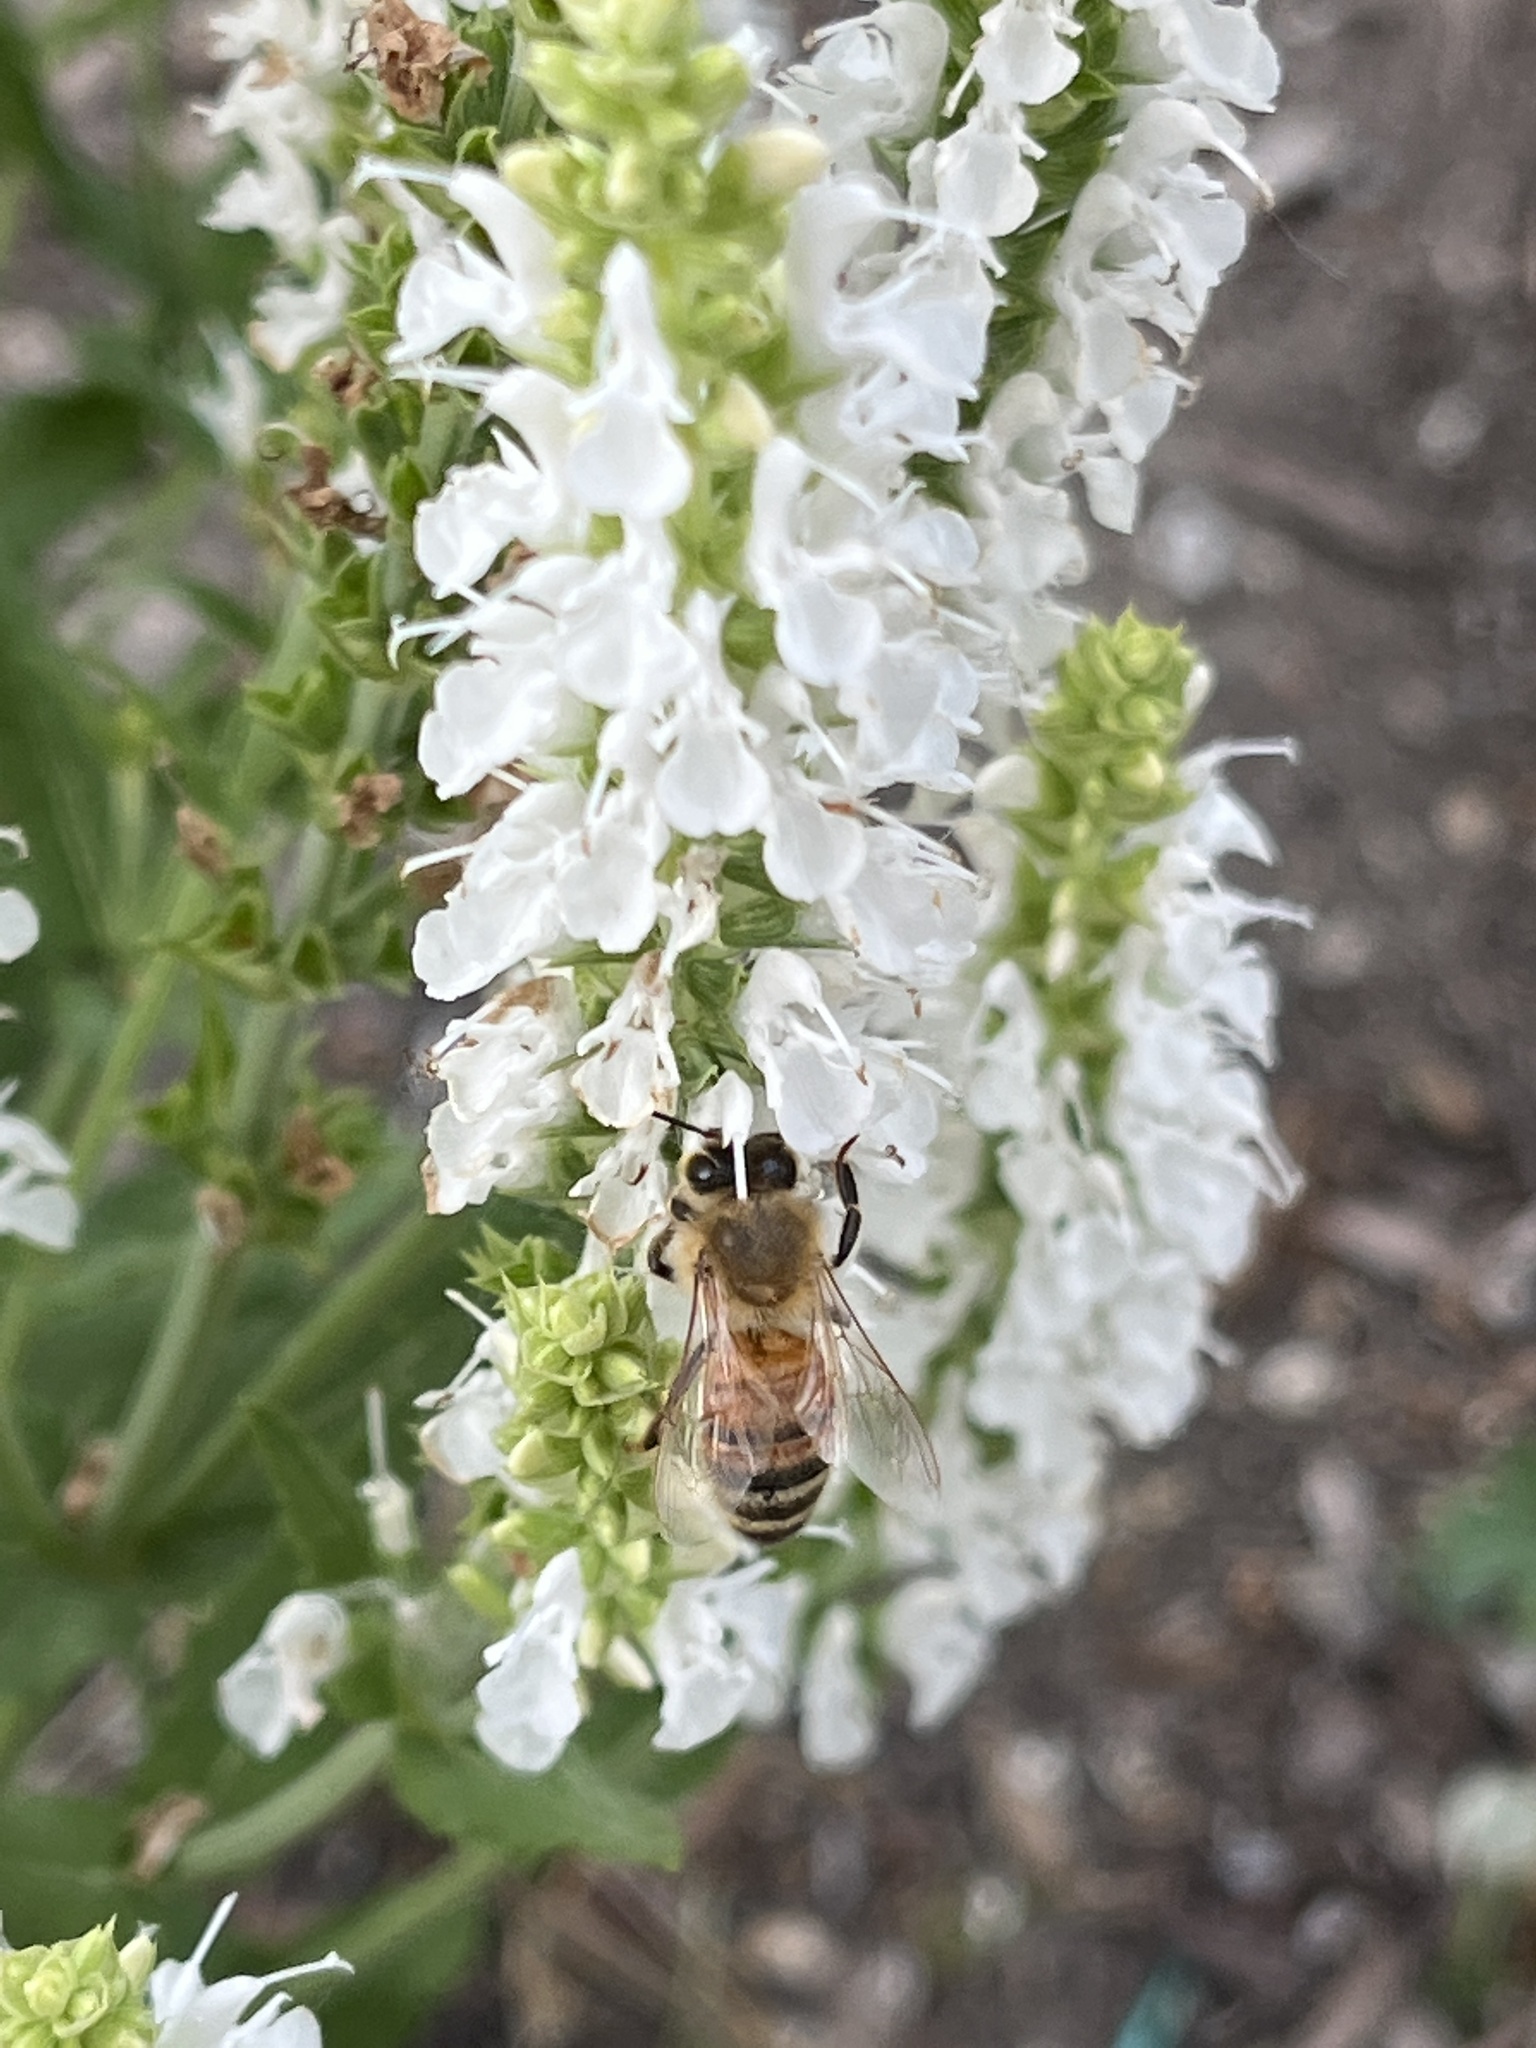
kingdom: Animalia
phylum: Arthropoda
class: Insecta
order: Hymenoptera
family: Apidae
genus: Apis
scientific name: Apis mellifera
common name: Honey bee
